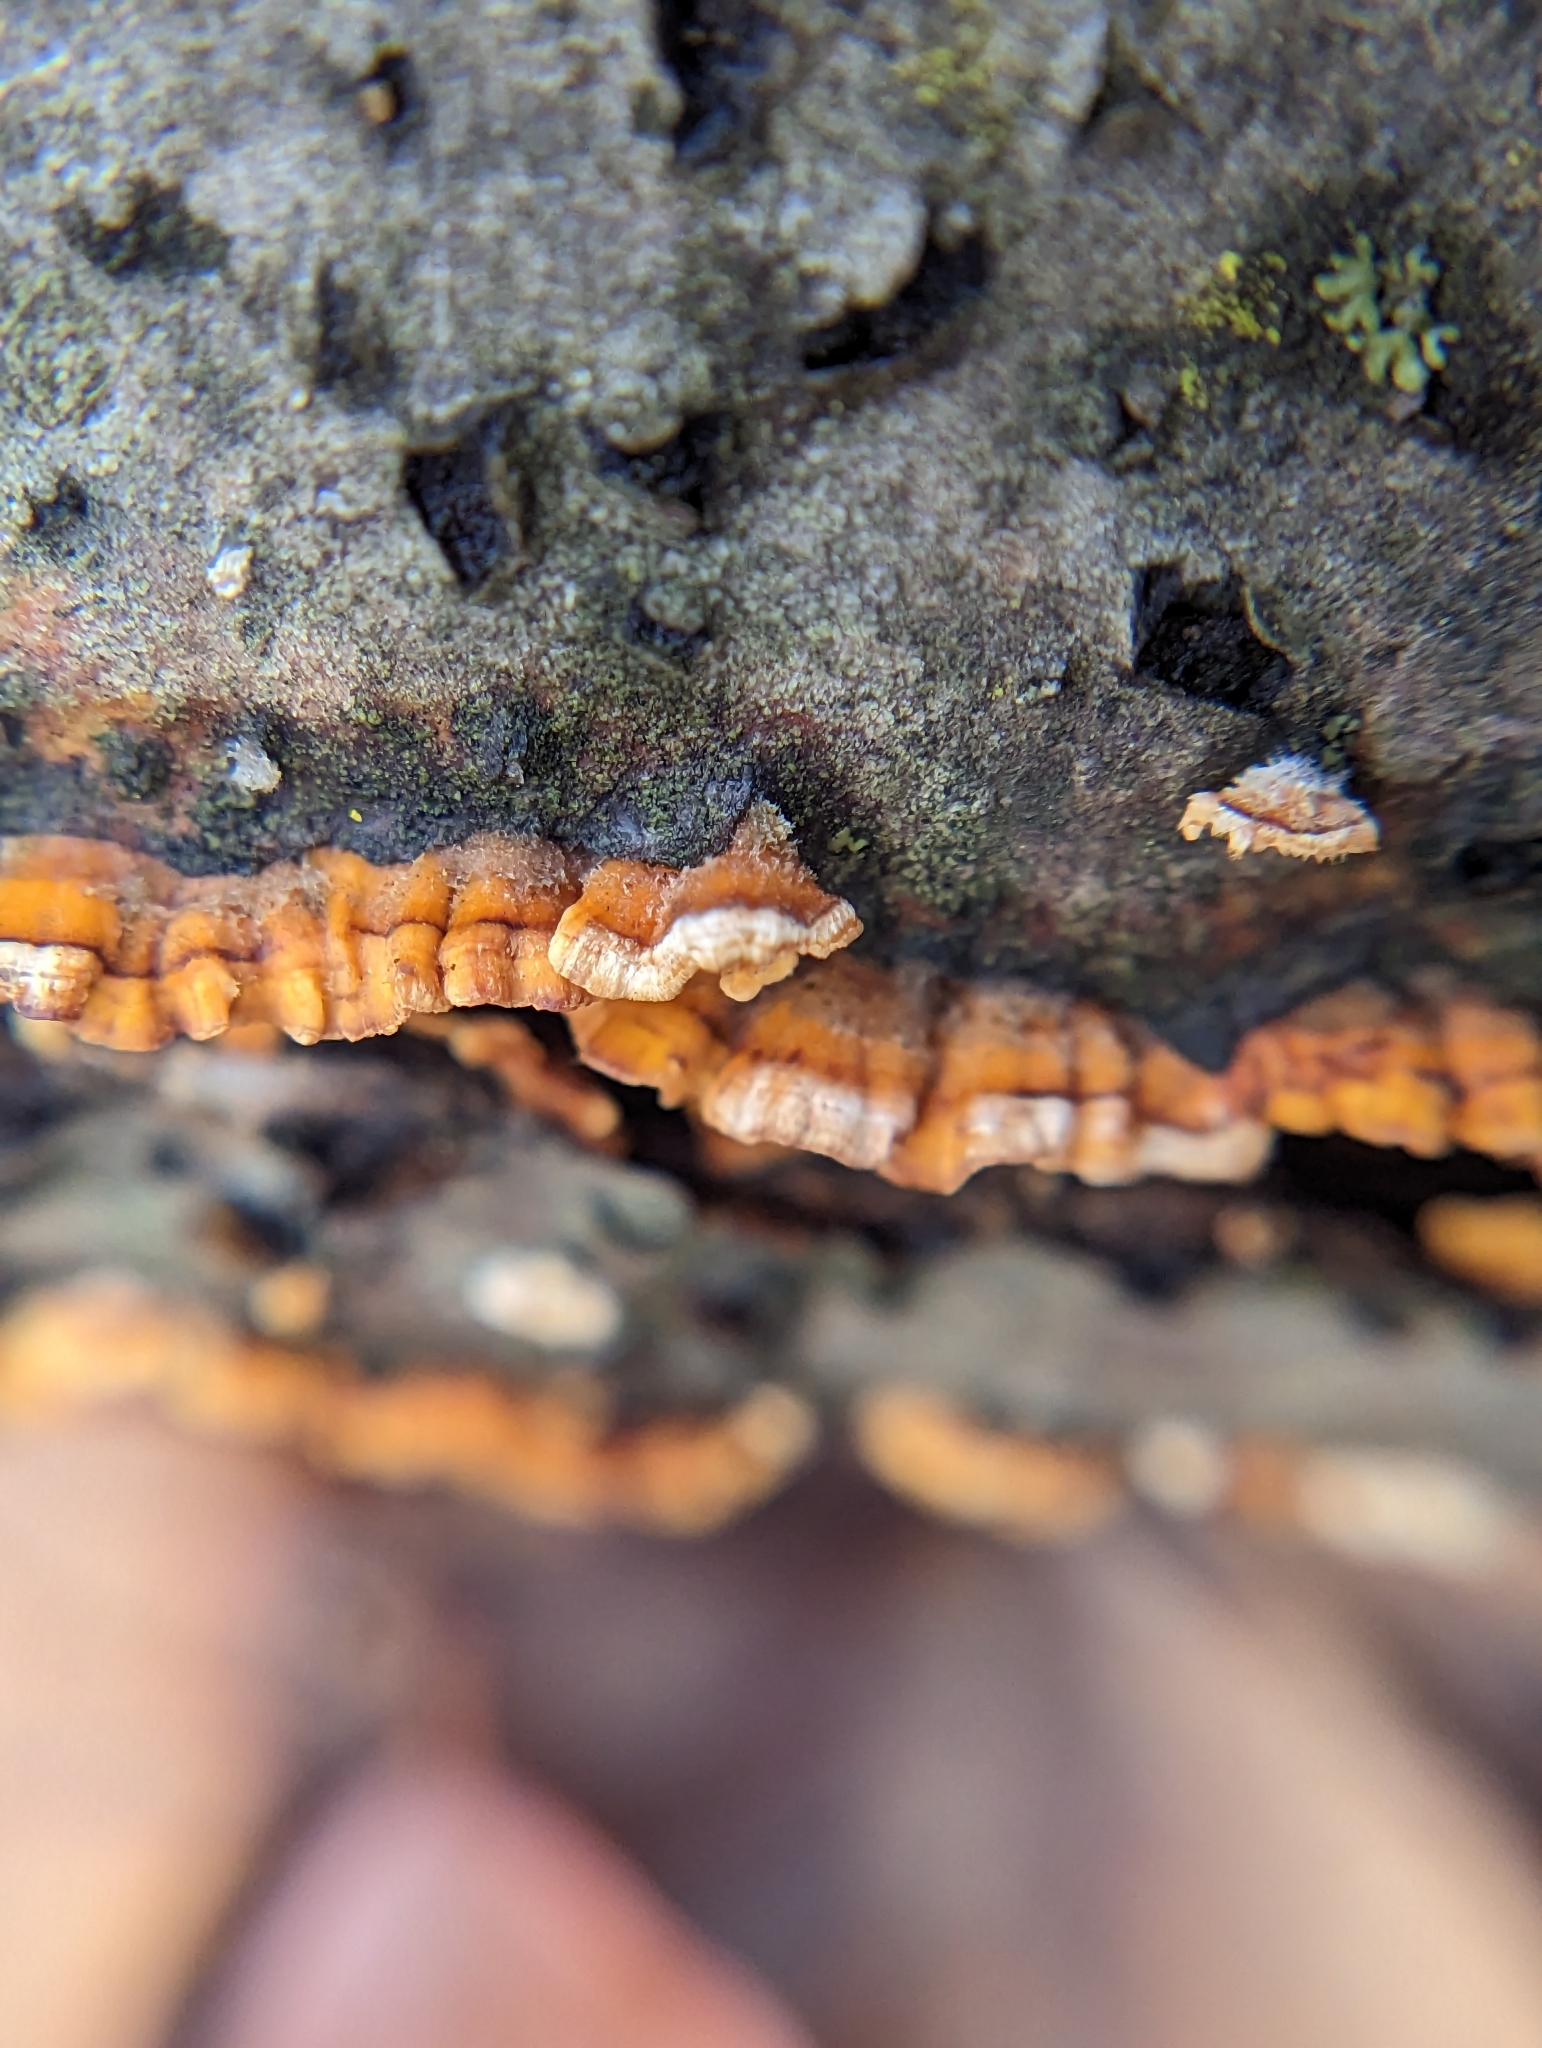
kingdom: Fungi
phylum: Basidiomycota
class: Agaricomycetes
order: Russulales
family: Stereaceae
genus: Stereum
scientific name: Stereum complicatum
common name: Crowded parchment
